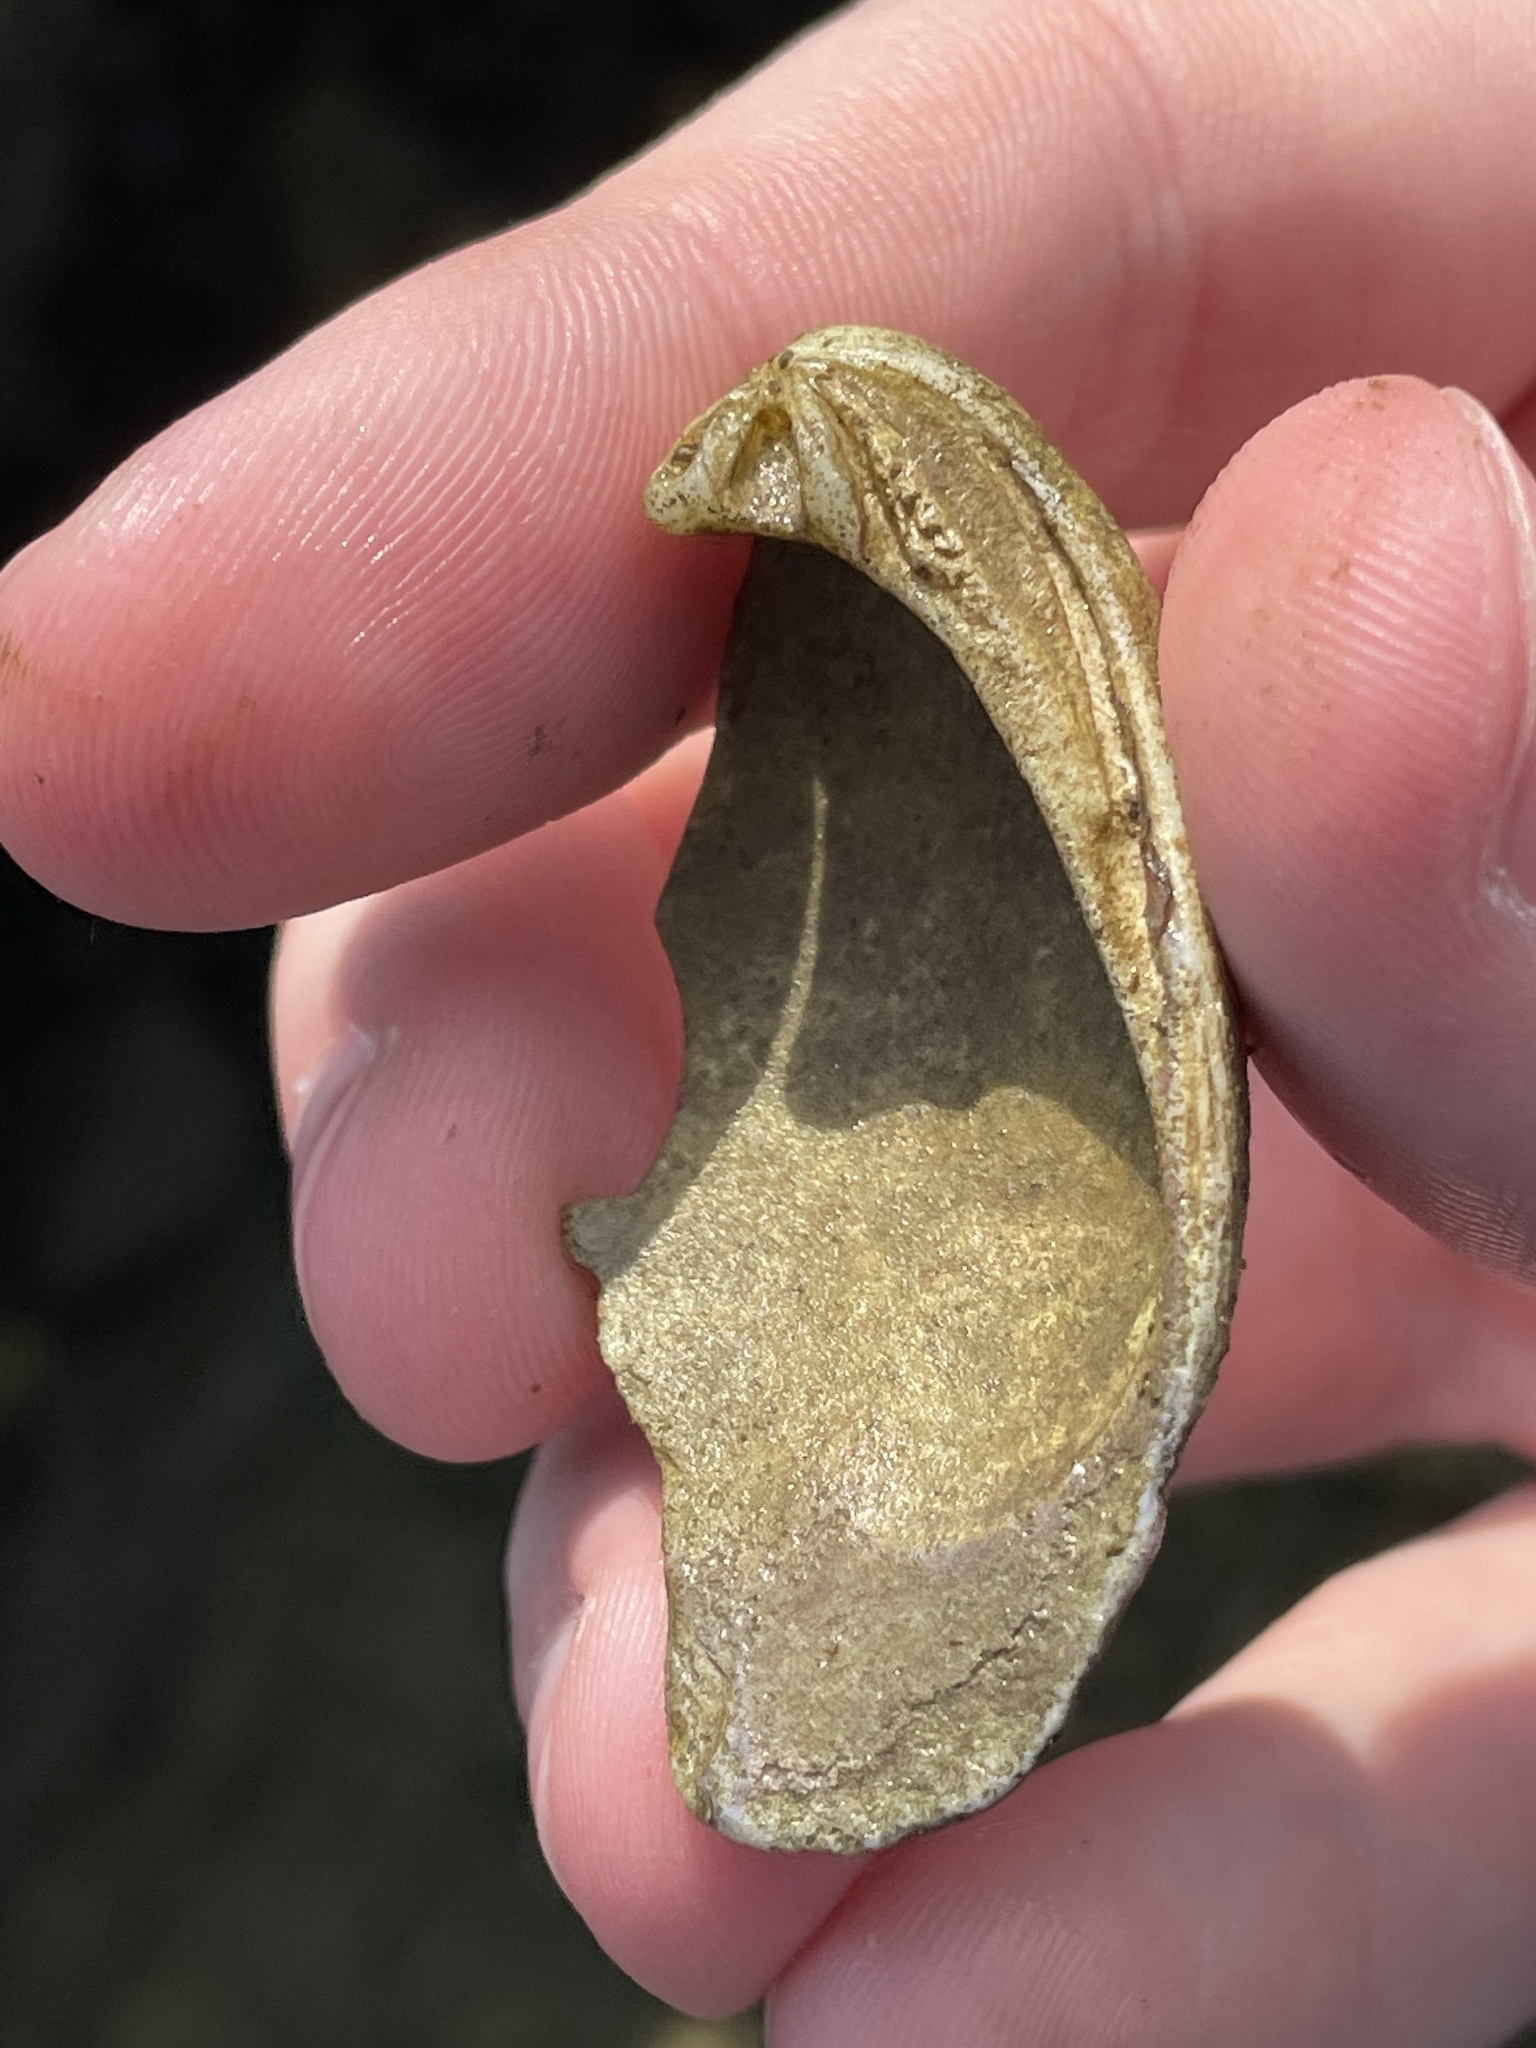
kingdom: Animalia
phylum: Mollusca
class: Bivalvia
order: Venerida
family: Veneridae
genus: Mercenaria
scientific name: Mercenaria mercenaria
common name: American hard-shelled clam
